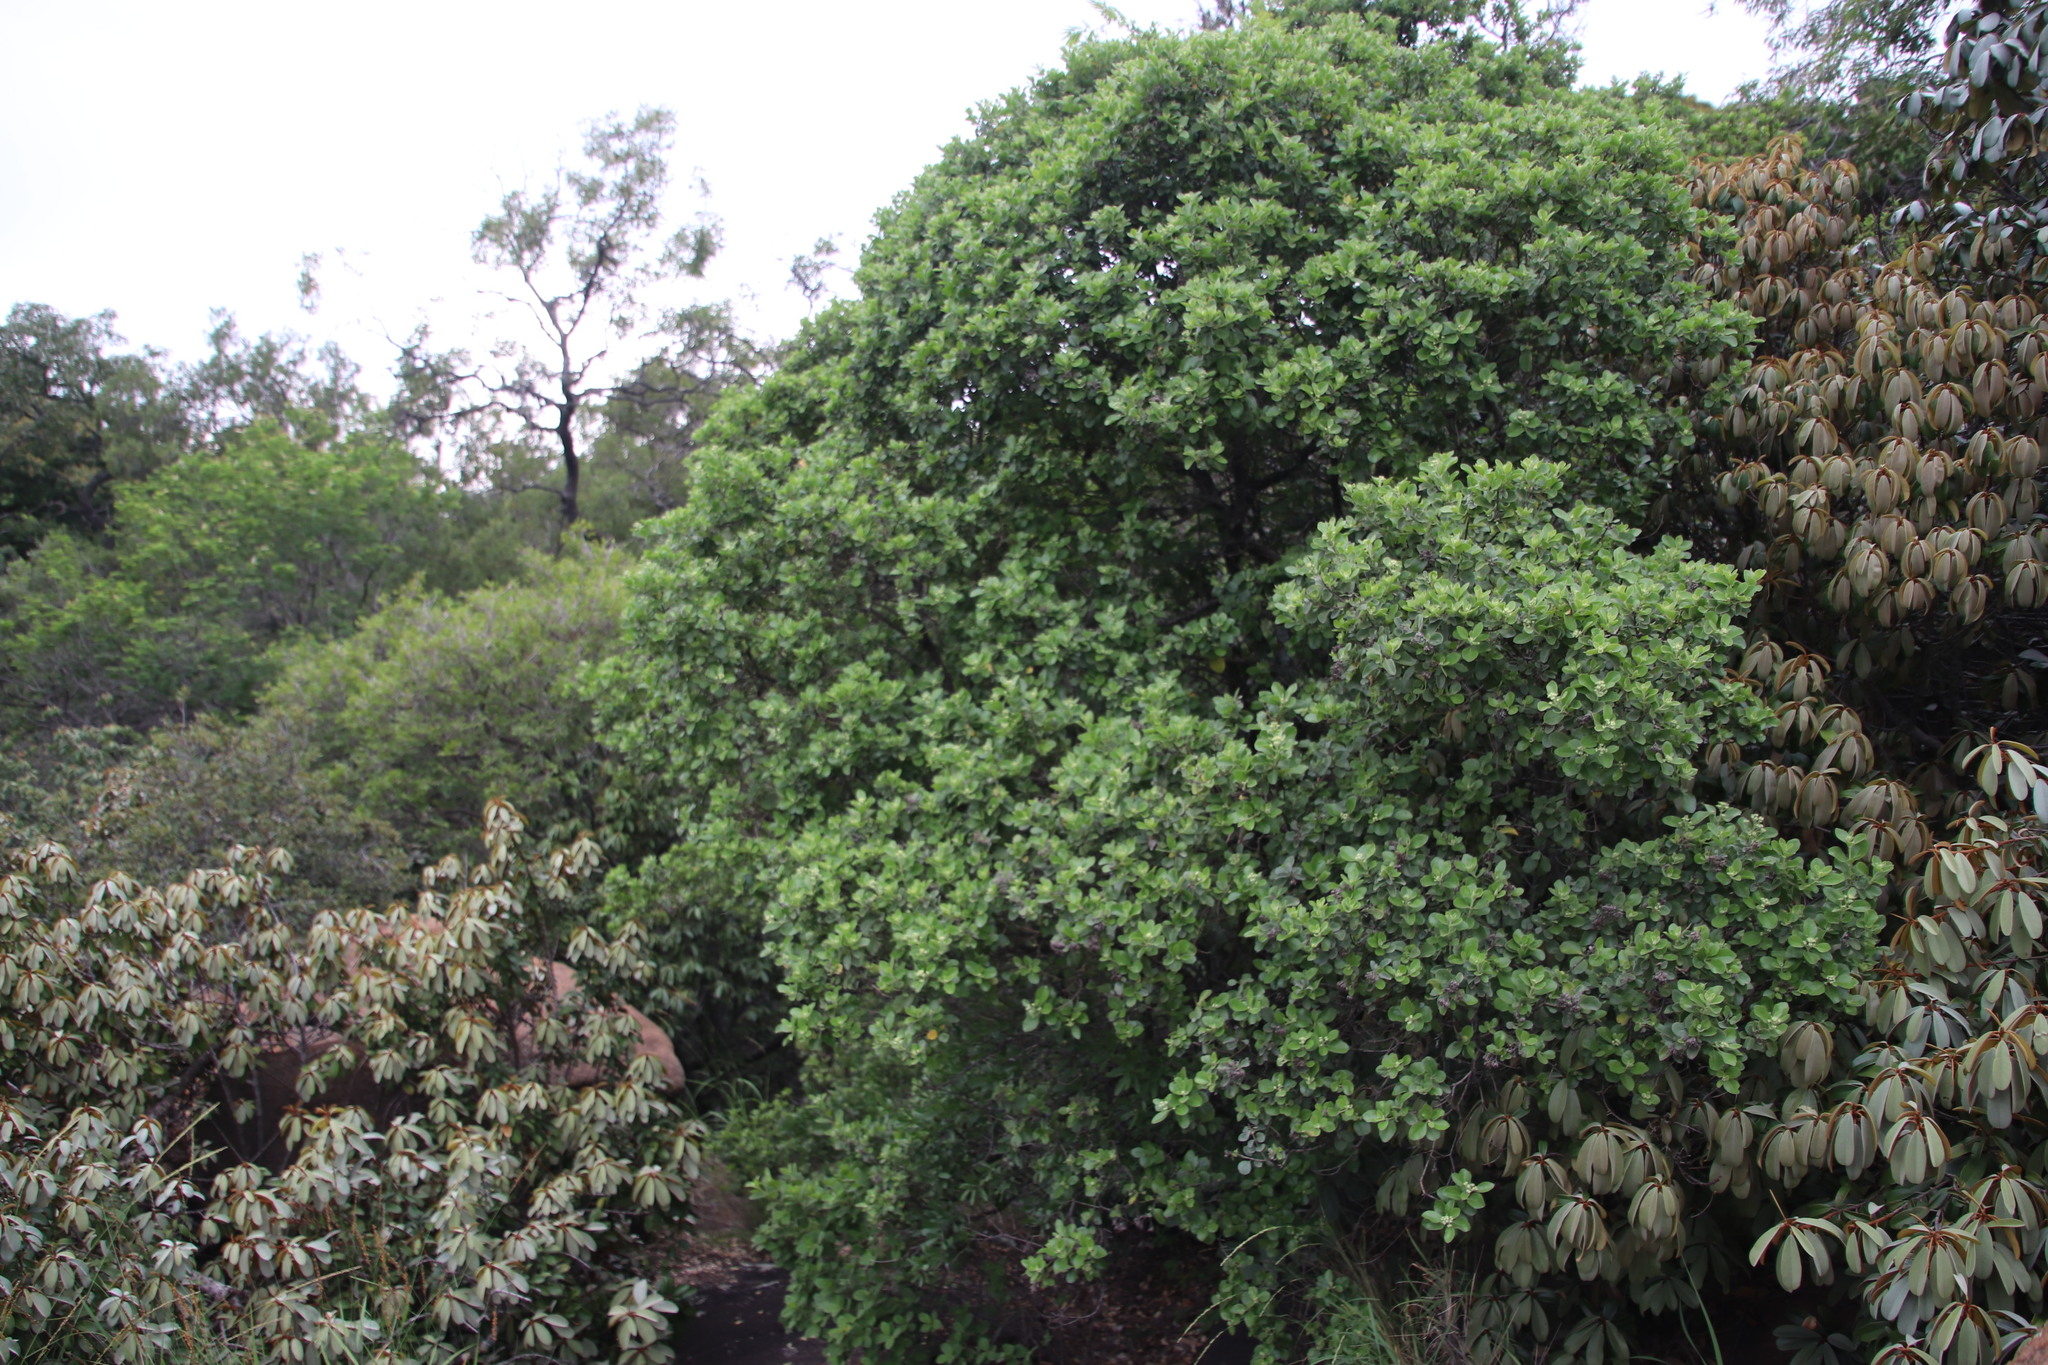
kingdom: Plantae
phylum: Tracheophyta
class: Magnoliopsida
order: Lamiales
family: Stilbaceae
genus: Nuxia
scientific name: Nuxia congesta
